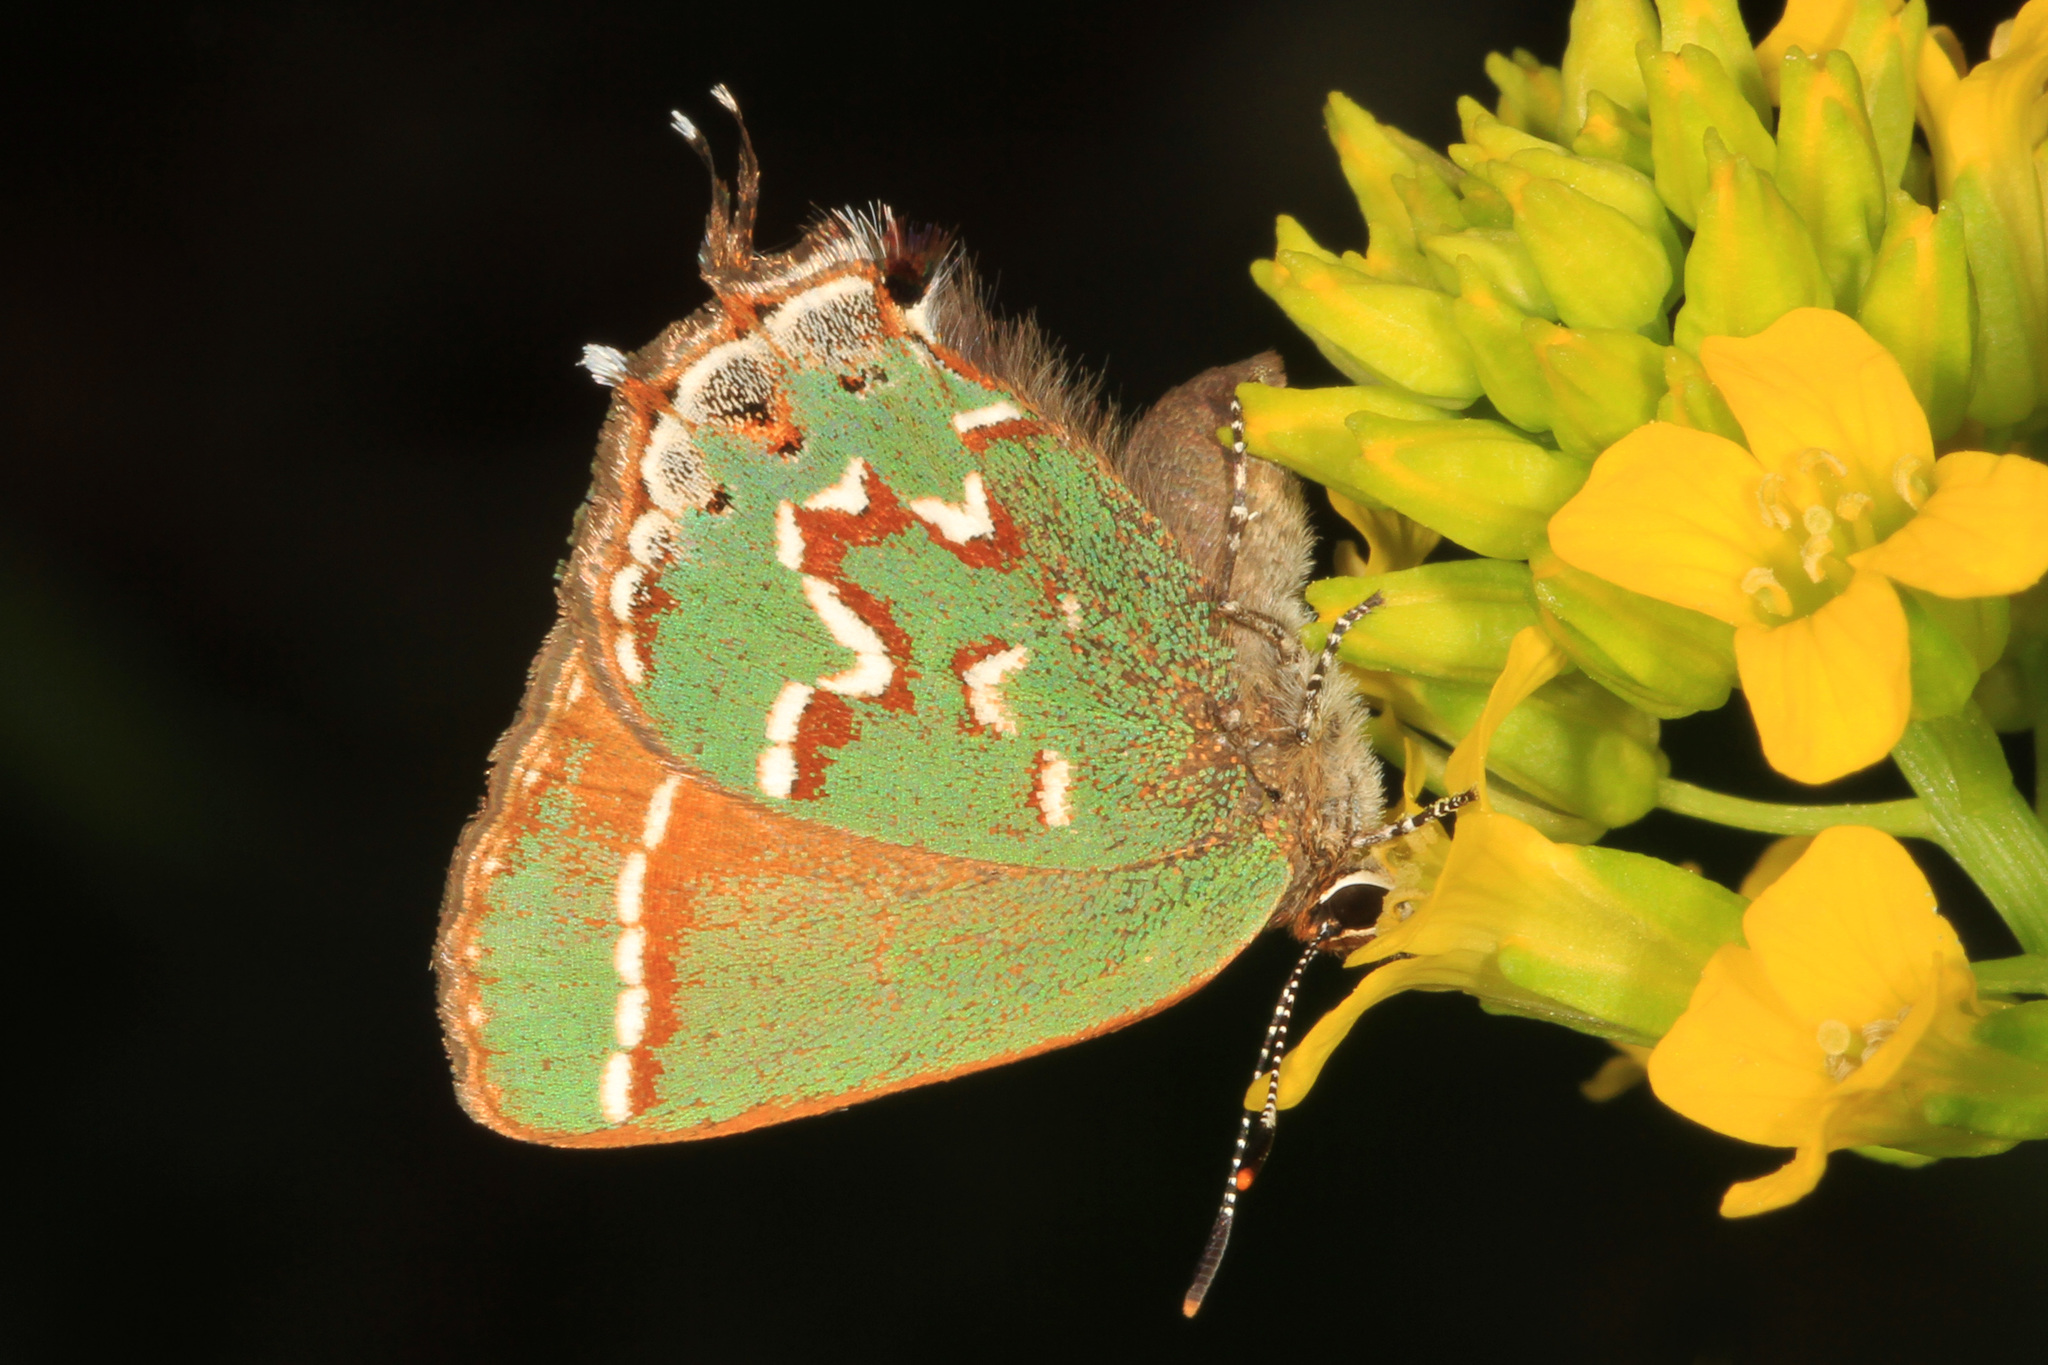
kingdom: Animalia
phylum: Arthropoda
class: Insecta
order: Lepidoptera
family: Lycaenidae
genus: Mitoura
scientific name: Mitoura gryneus
